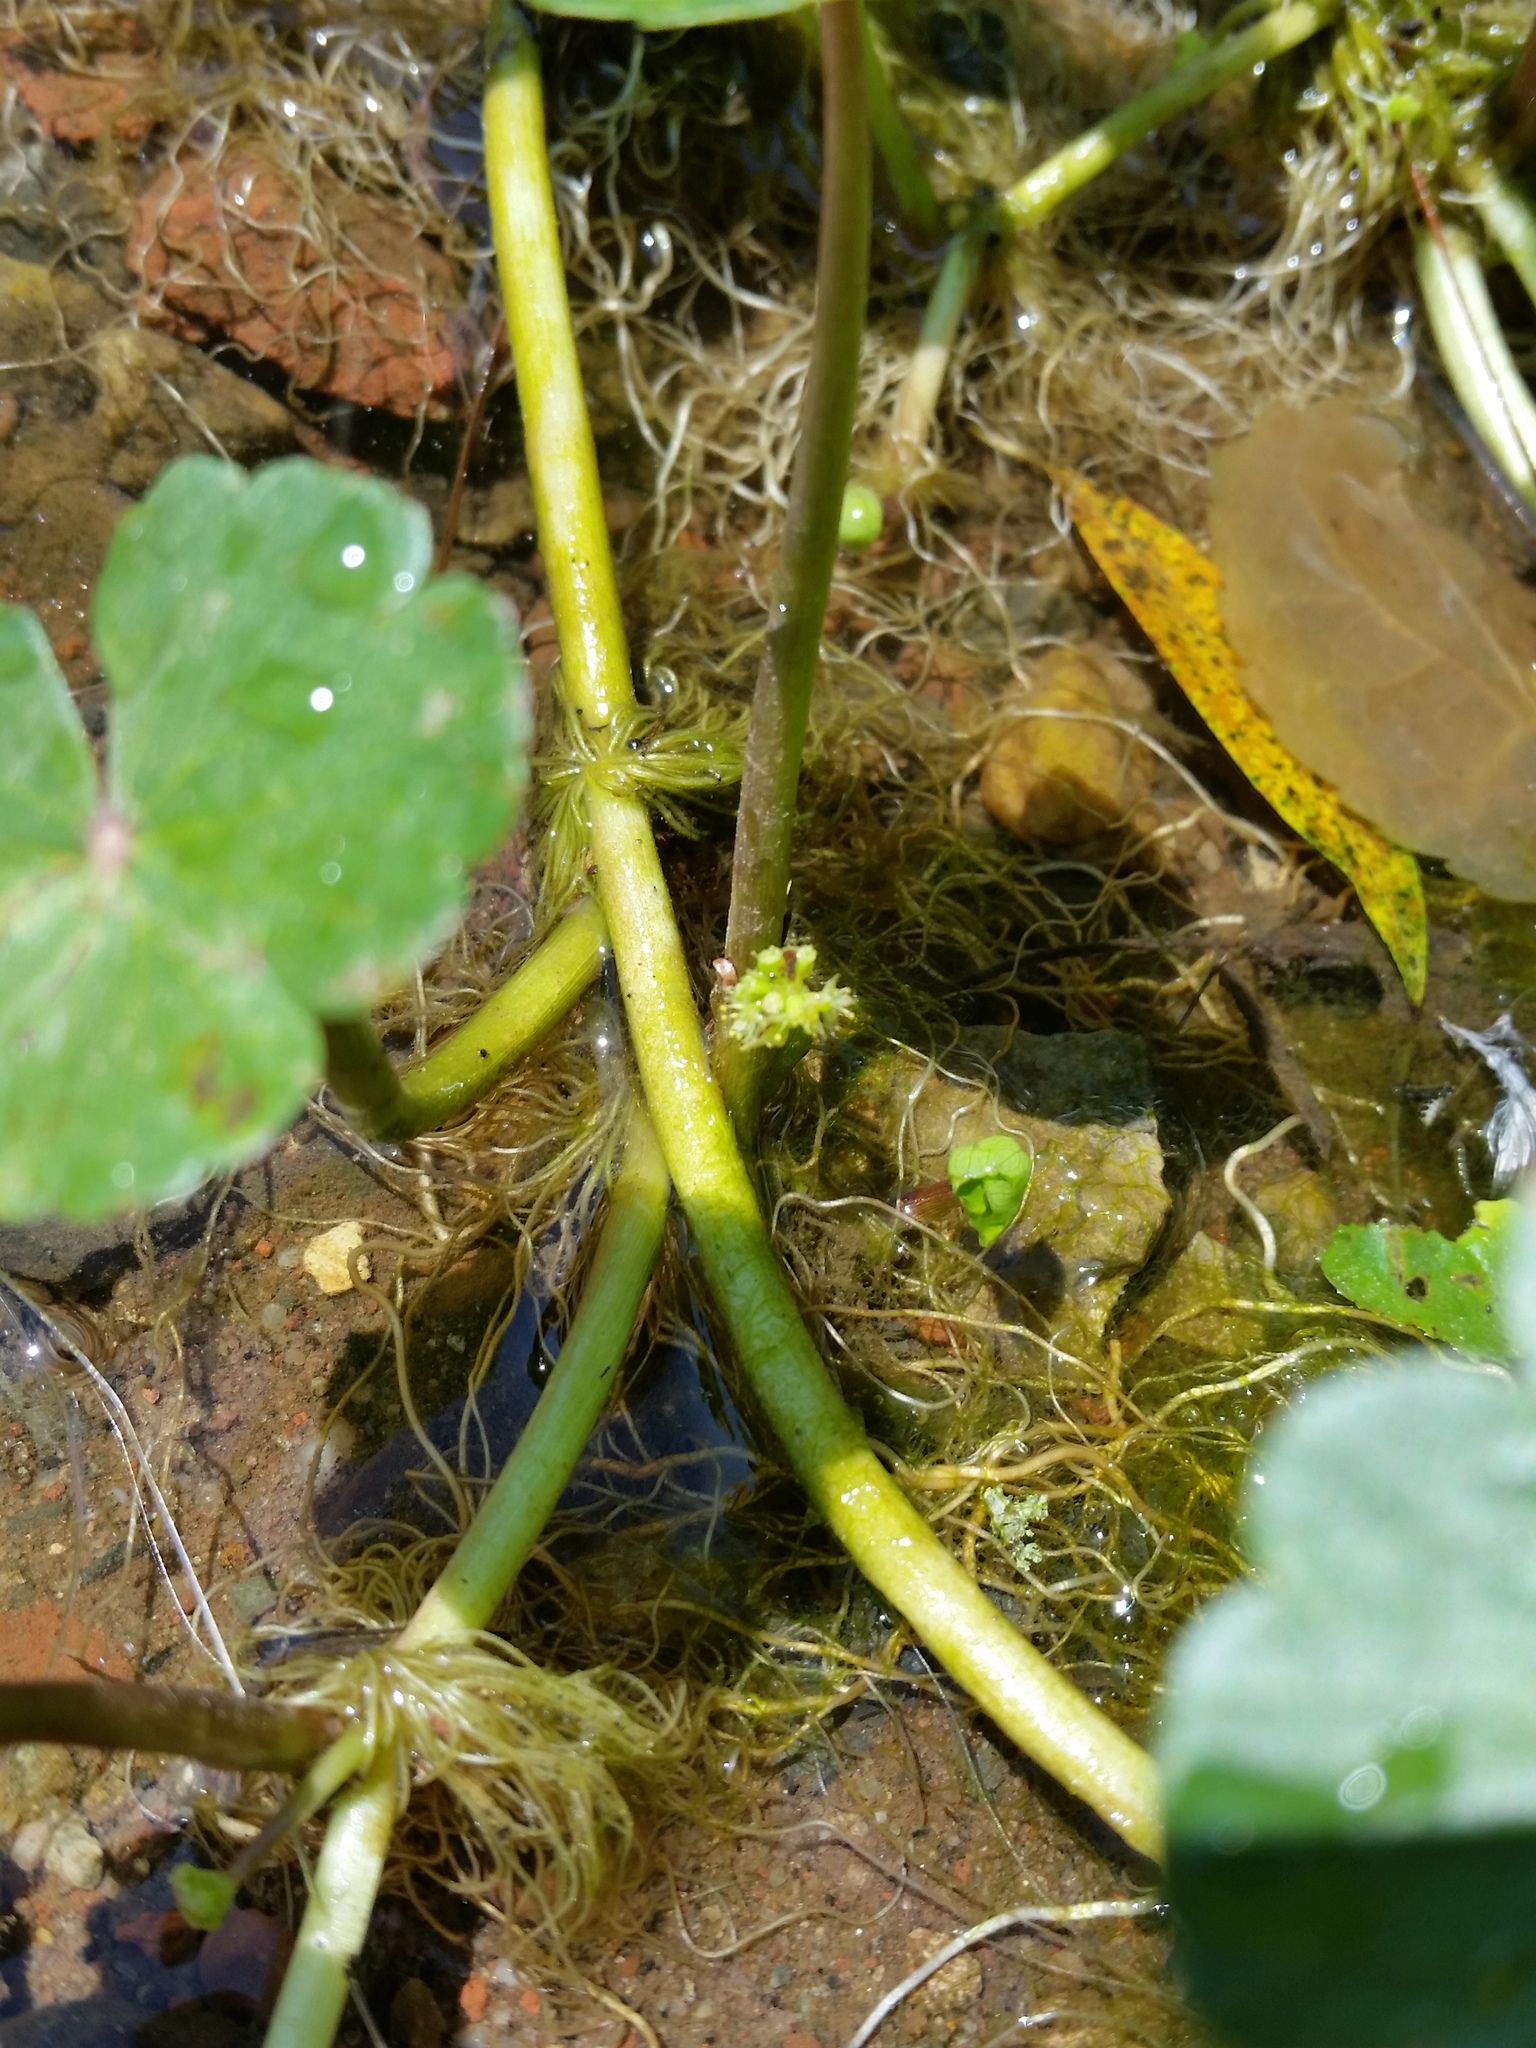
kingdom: Plantae
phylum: Tracheophyta
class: Magnoliopsida
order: Apiales
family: Araliaceae
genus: Hydrocotyle
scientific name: Hydrocotyle ranunculoides
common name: Floating pennywort
